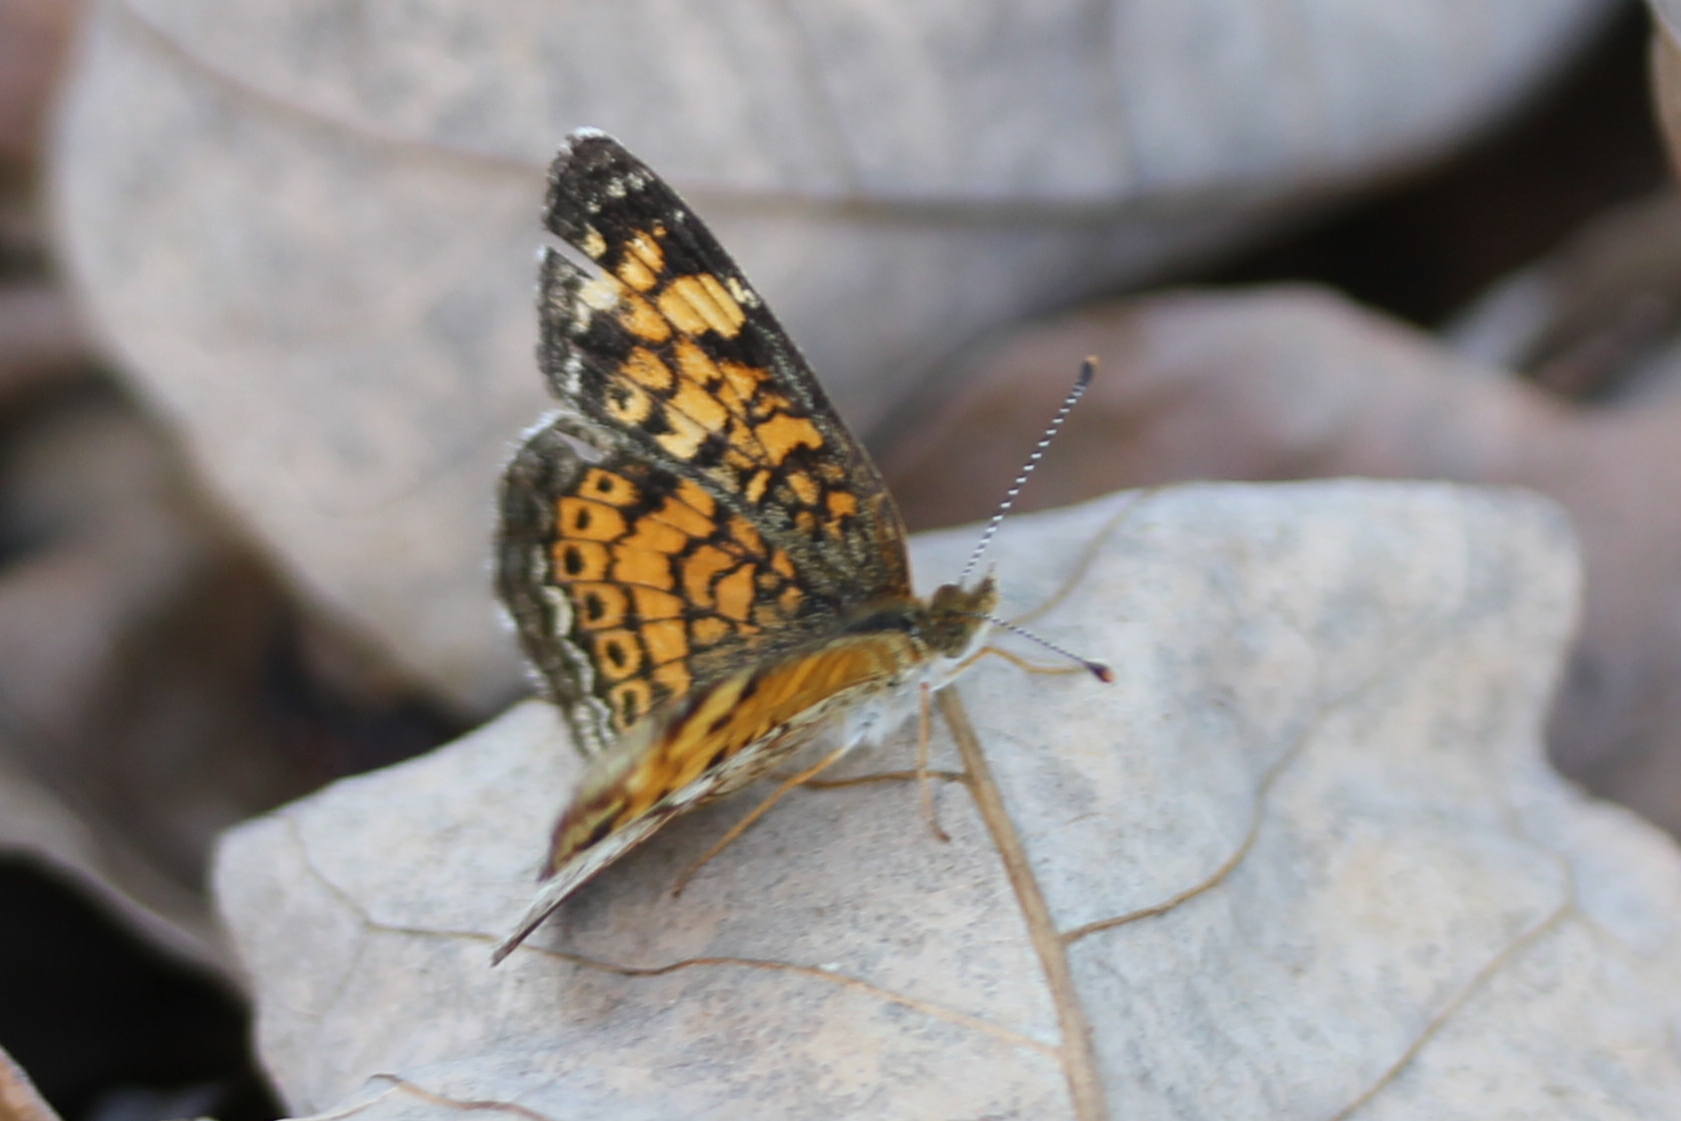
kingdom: Animalia
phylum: Arthropoda
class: Insecta
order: Lepidoptera
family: Nymphalidae
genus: Phyciodes
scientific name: Phyciodes tharos
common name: Pearl crescent
